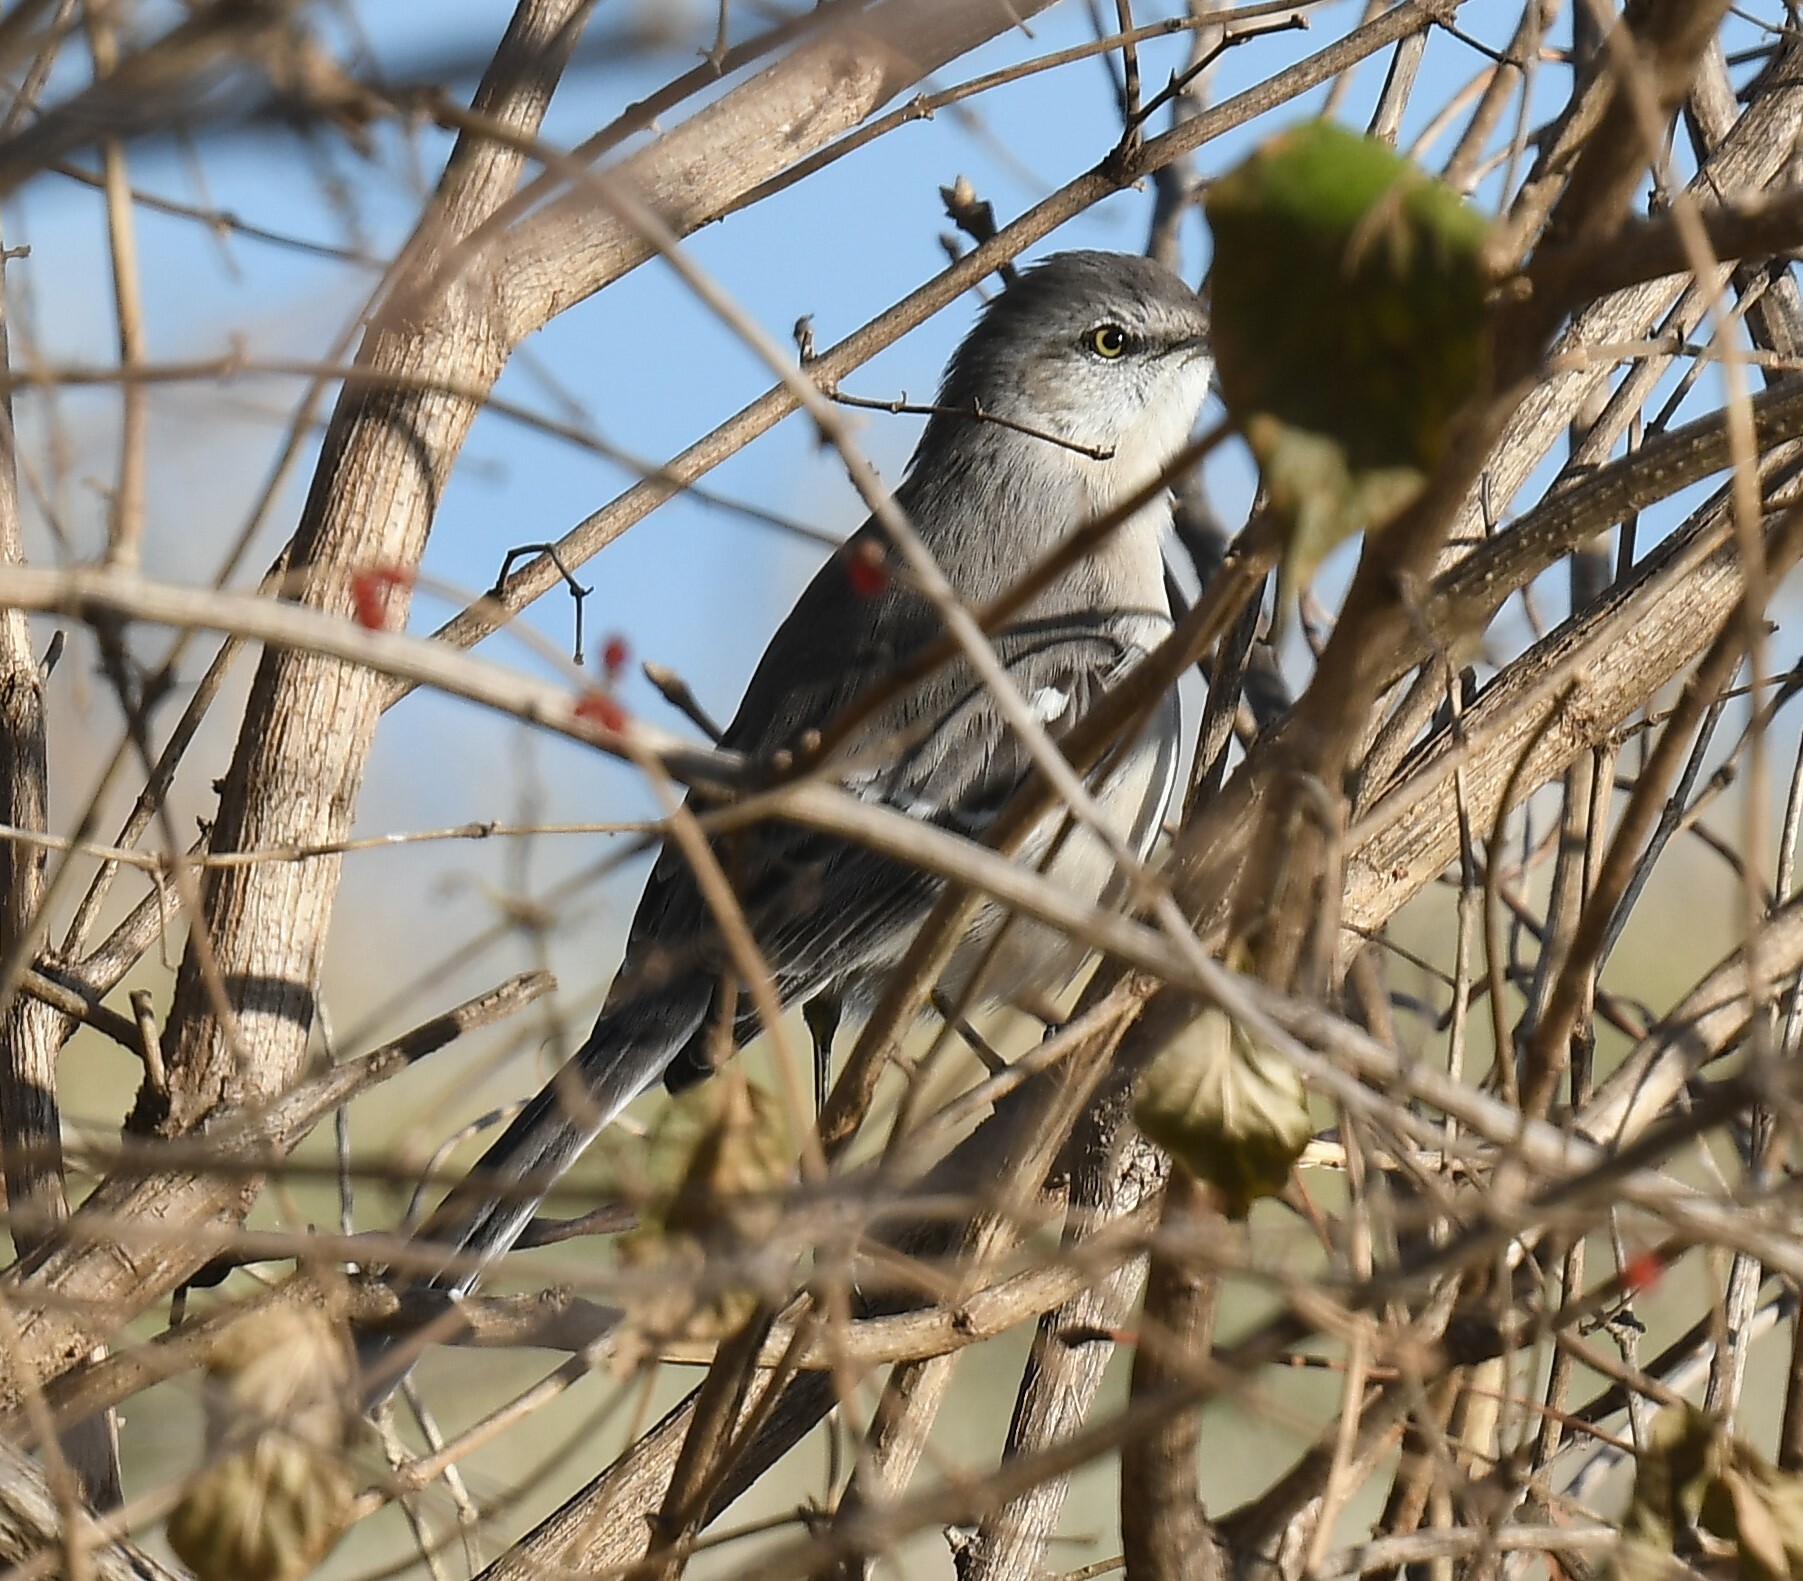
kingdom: Animalia
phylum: Chordata
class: Aves
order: Passeriformes
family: Mimidae
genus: Mimus
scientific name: Mimus polyglottos
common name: Northern mockingbird
